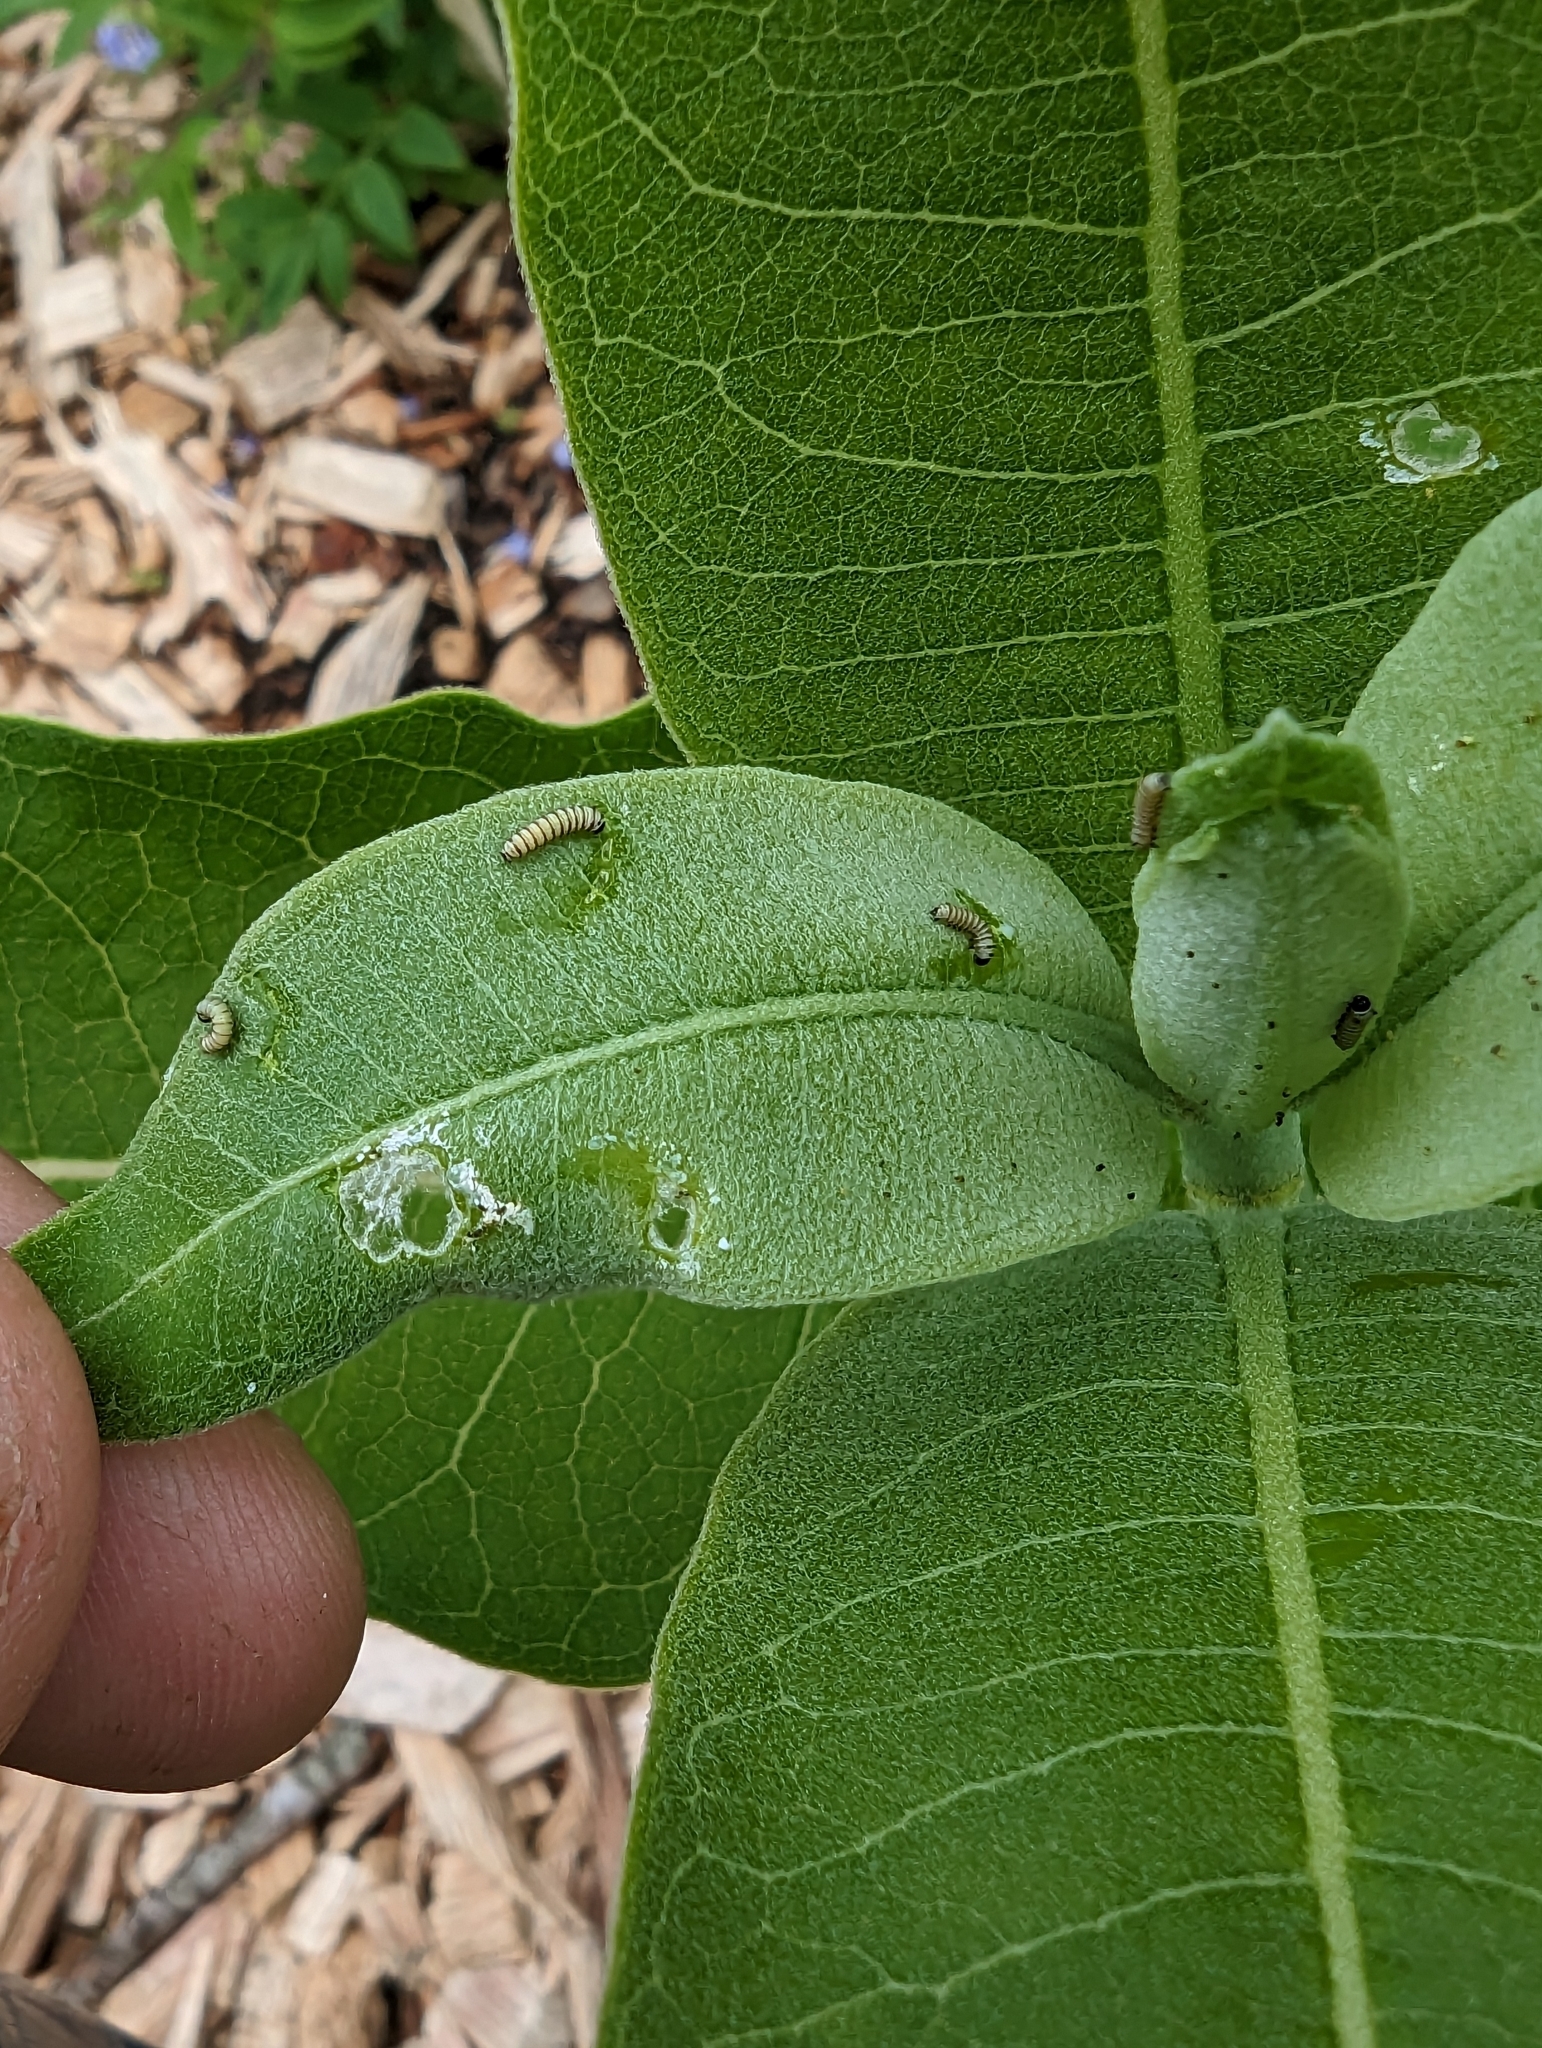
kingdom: Animalia
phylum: Arthropoda
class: Insecta
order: Lepidoptera
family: Nymphalidae
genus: Danaus
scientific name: Danaus plexippus
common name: Monarch
